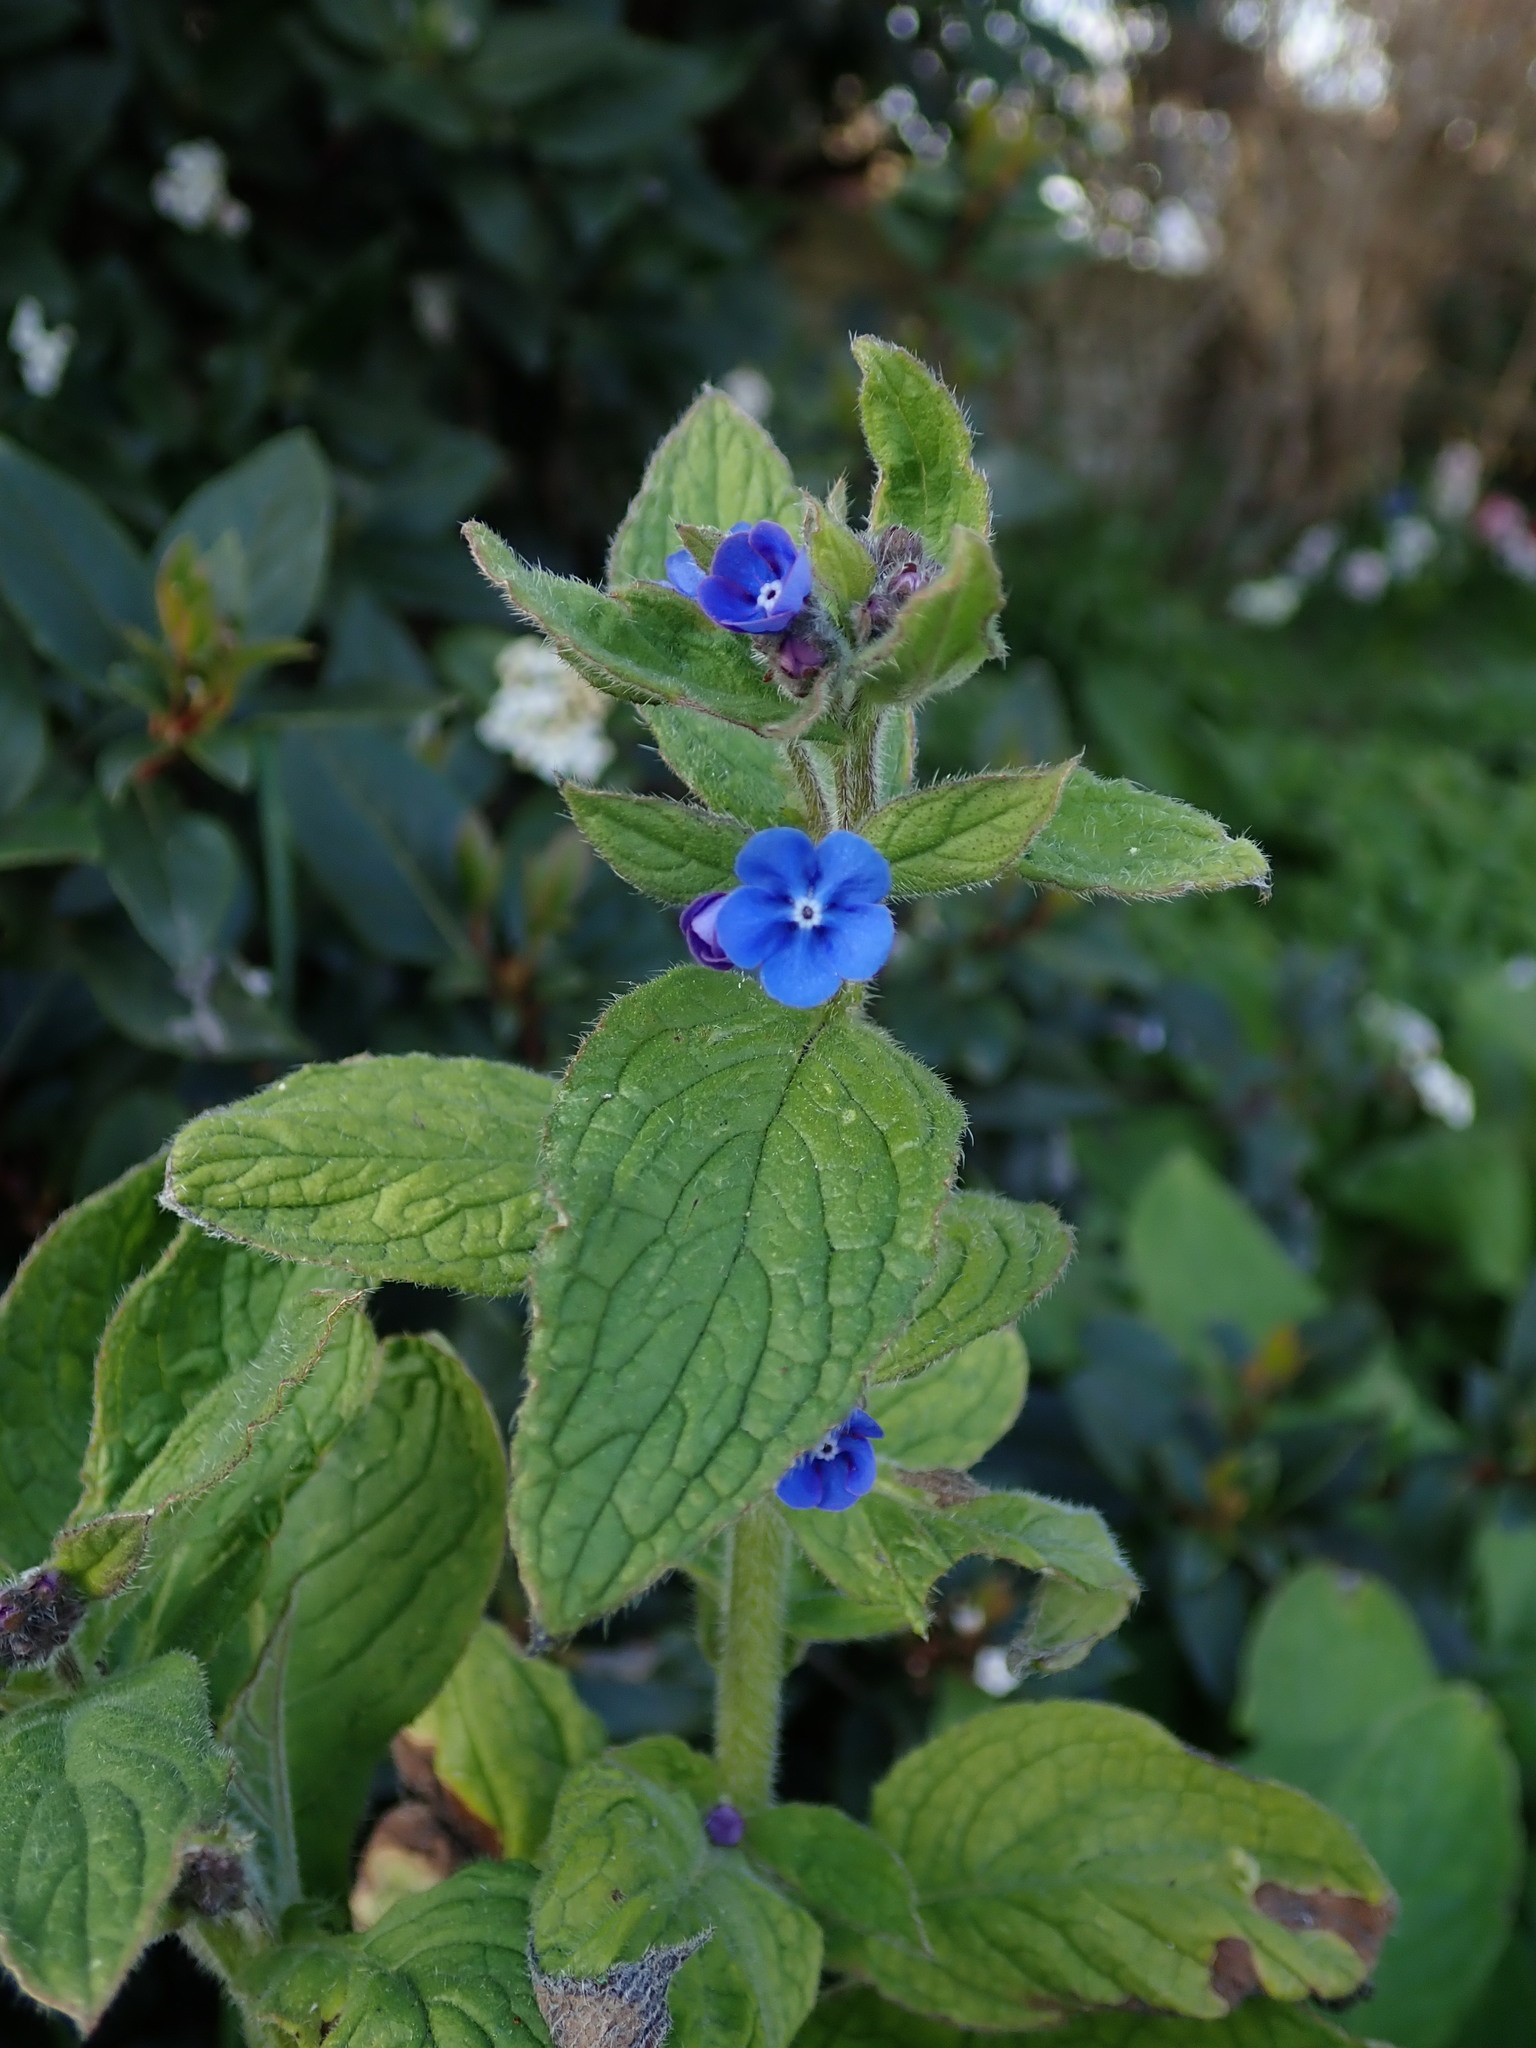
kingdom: Plantae
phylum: Tracheophyta
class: Magnoliopsida
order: Boraginales
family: Boraginaceae
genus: Pentaglottis
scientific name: Pentaglottis sempervirens
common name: Green alkanet
